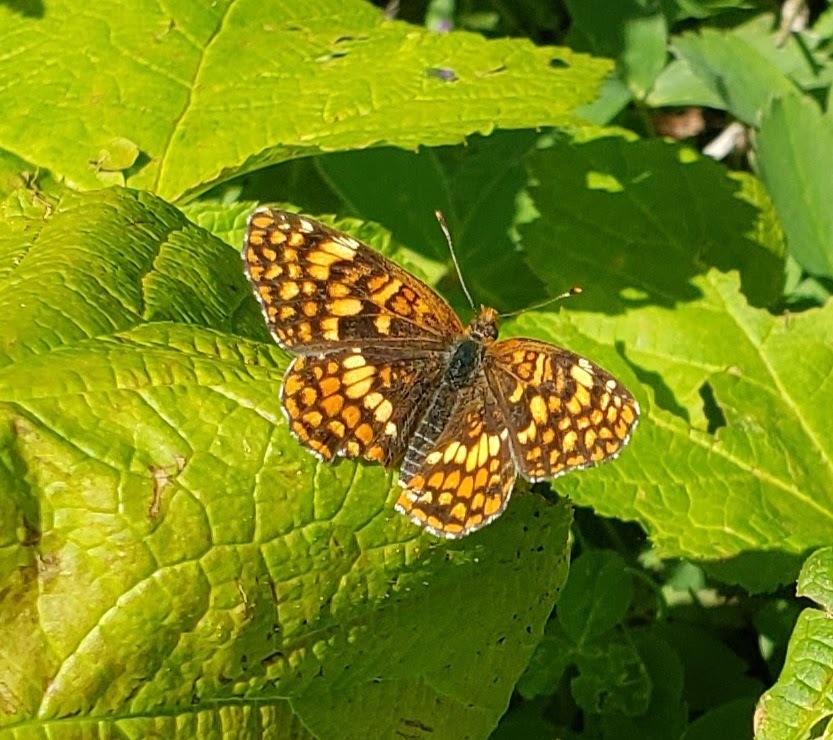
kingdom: Animalia
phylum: Arthropoda
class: Insecta
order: Lepidoptera
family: Nymphalidae
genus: Chlosyne
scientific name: Chlosyne palla
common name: Northern checkerspot
